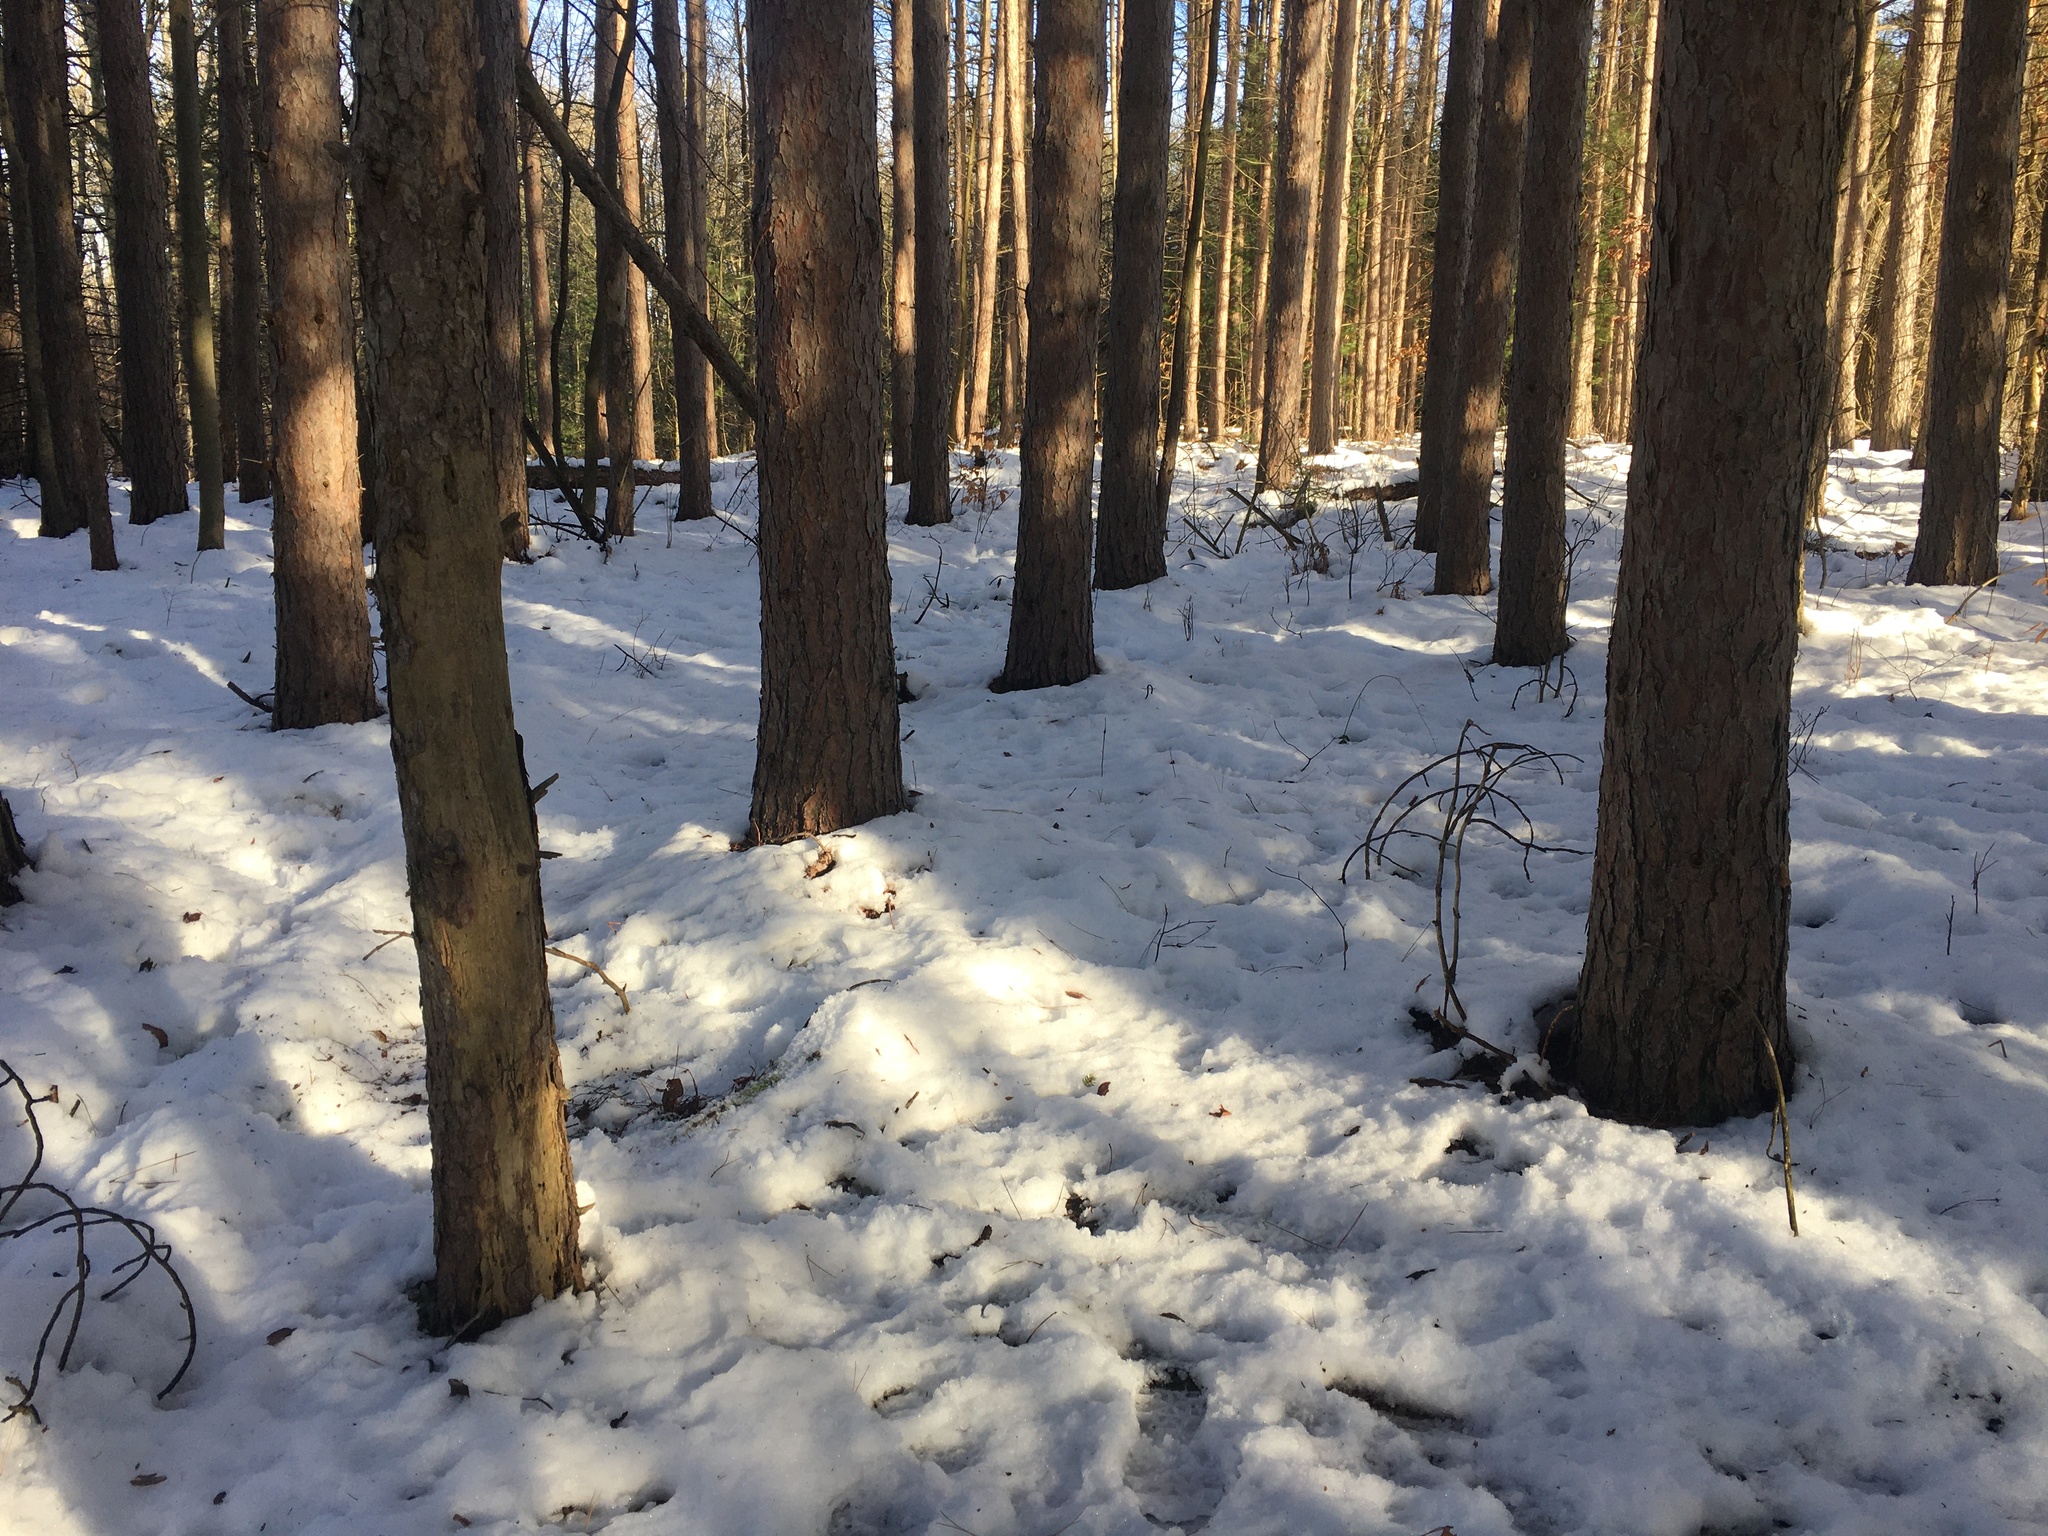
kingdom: Plantae
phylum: Tracheophyta
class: Magnoliopsida
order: Gentianales
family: Apocynaceae
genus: Vinca
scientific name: Vinca minor
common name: Lesser periwinkle
